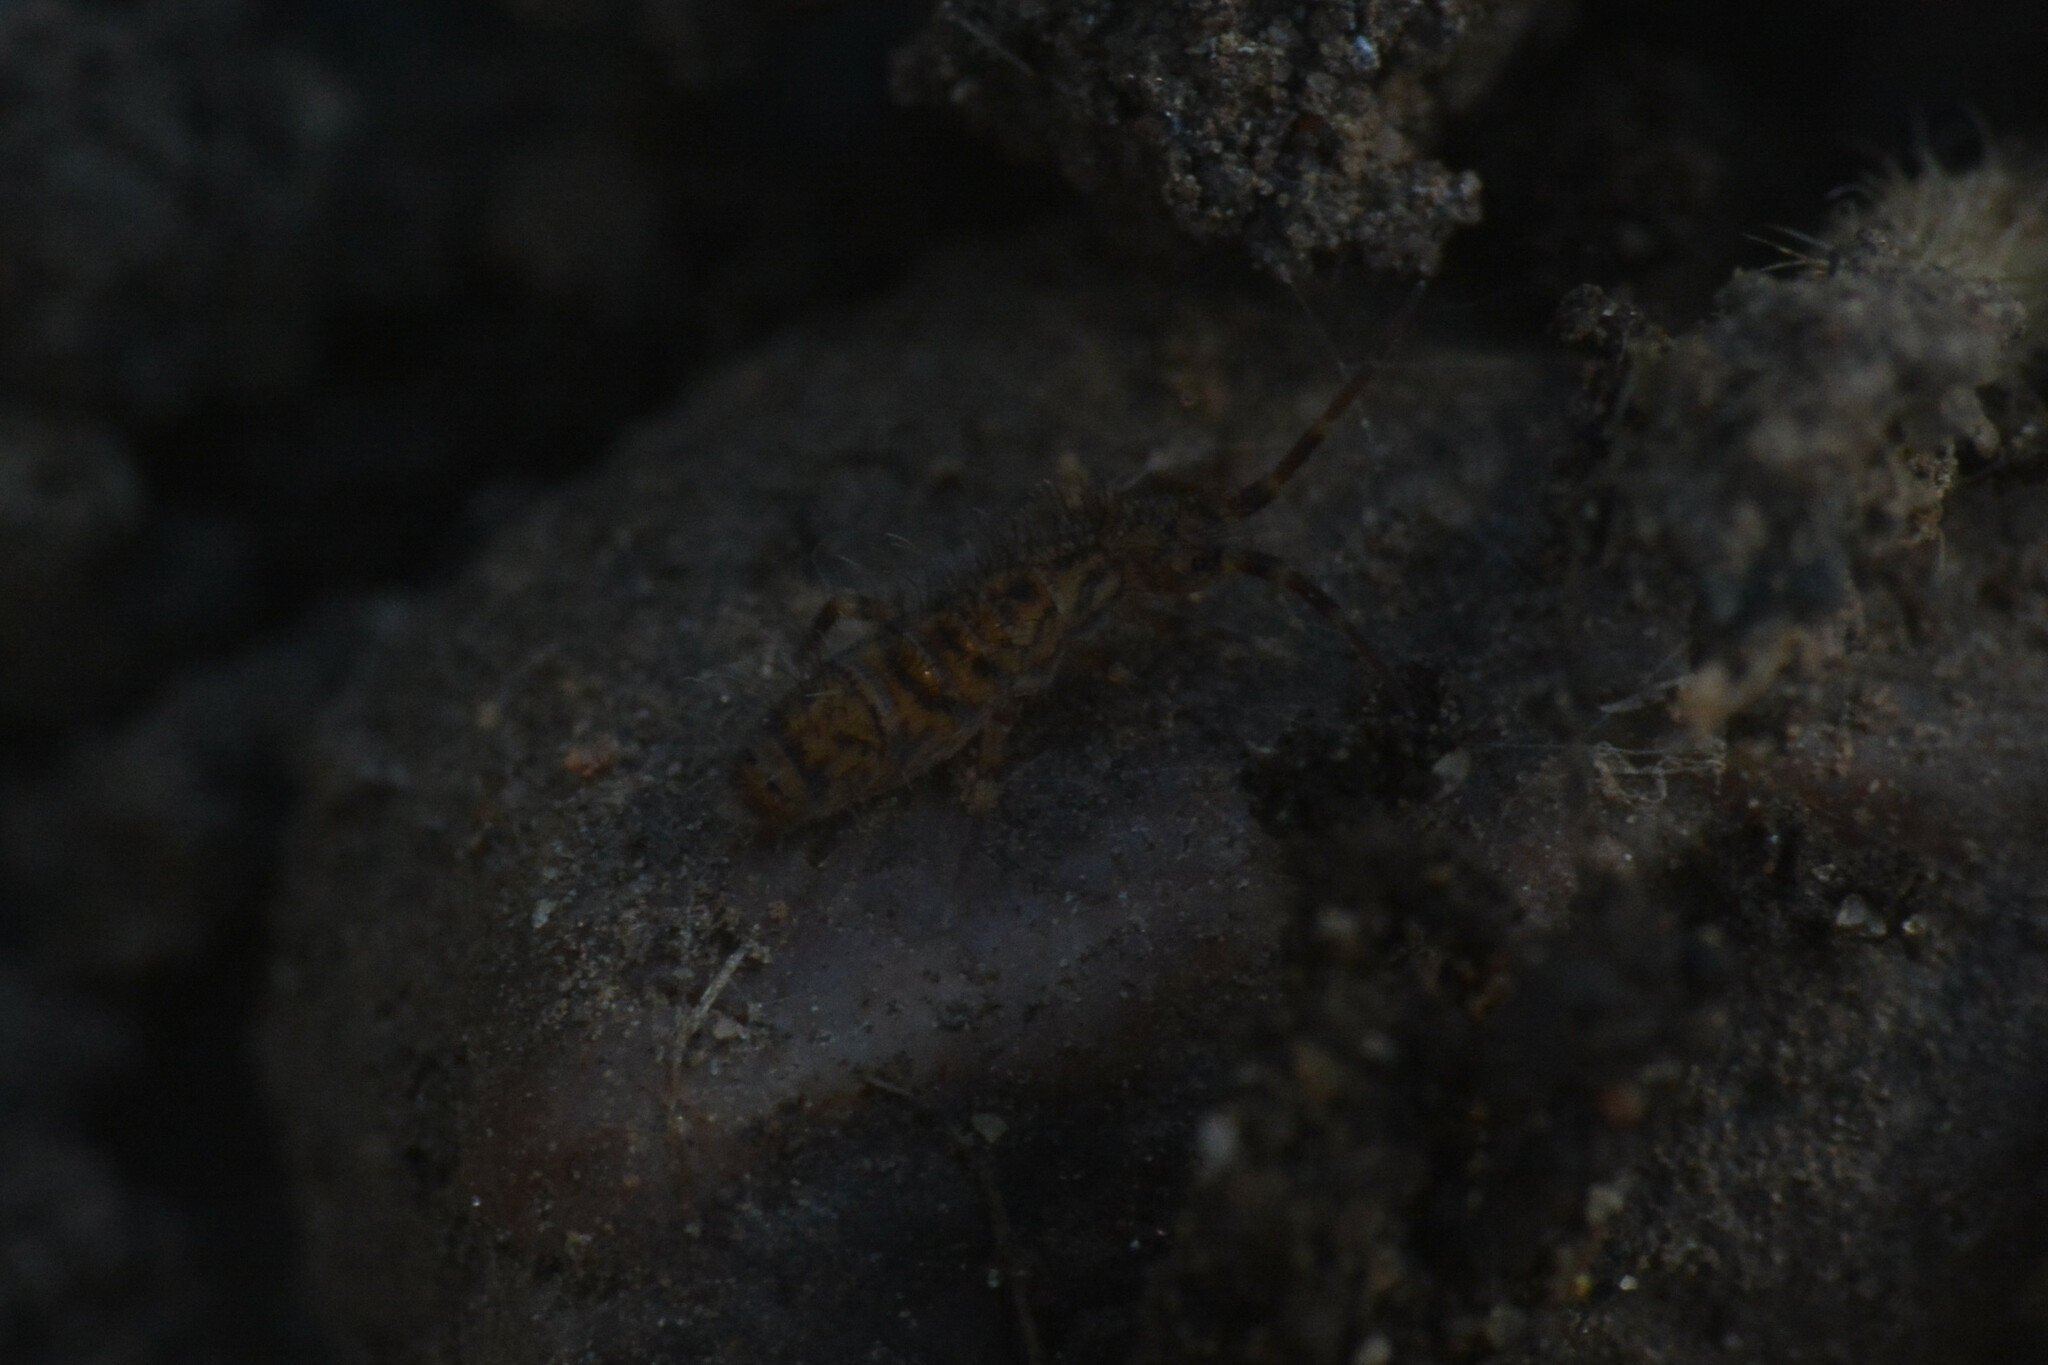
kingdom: Animalia
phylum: Arthropoda
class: Collembola
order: Entomobryomorpha
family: Orchesellidae
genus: Orchesella
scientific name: Orchesella villosa
